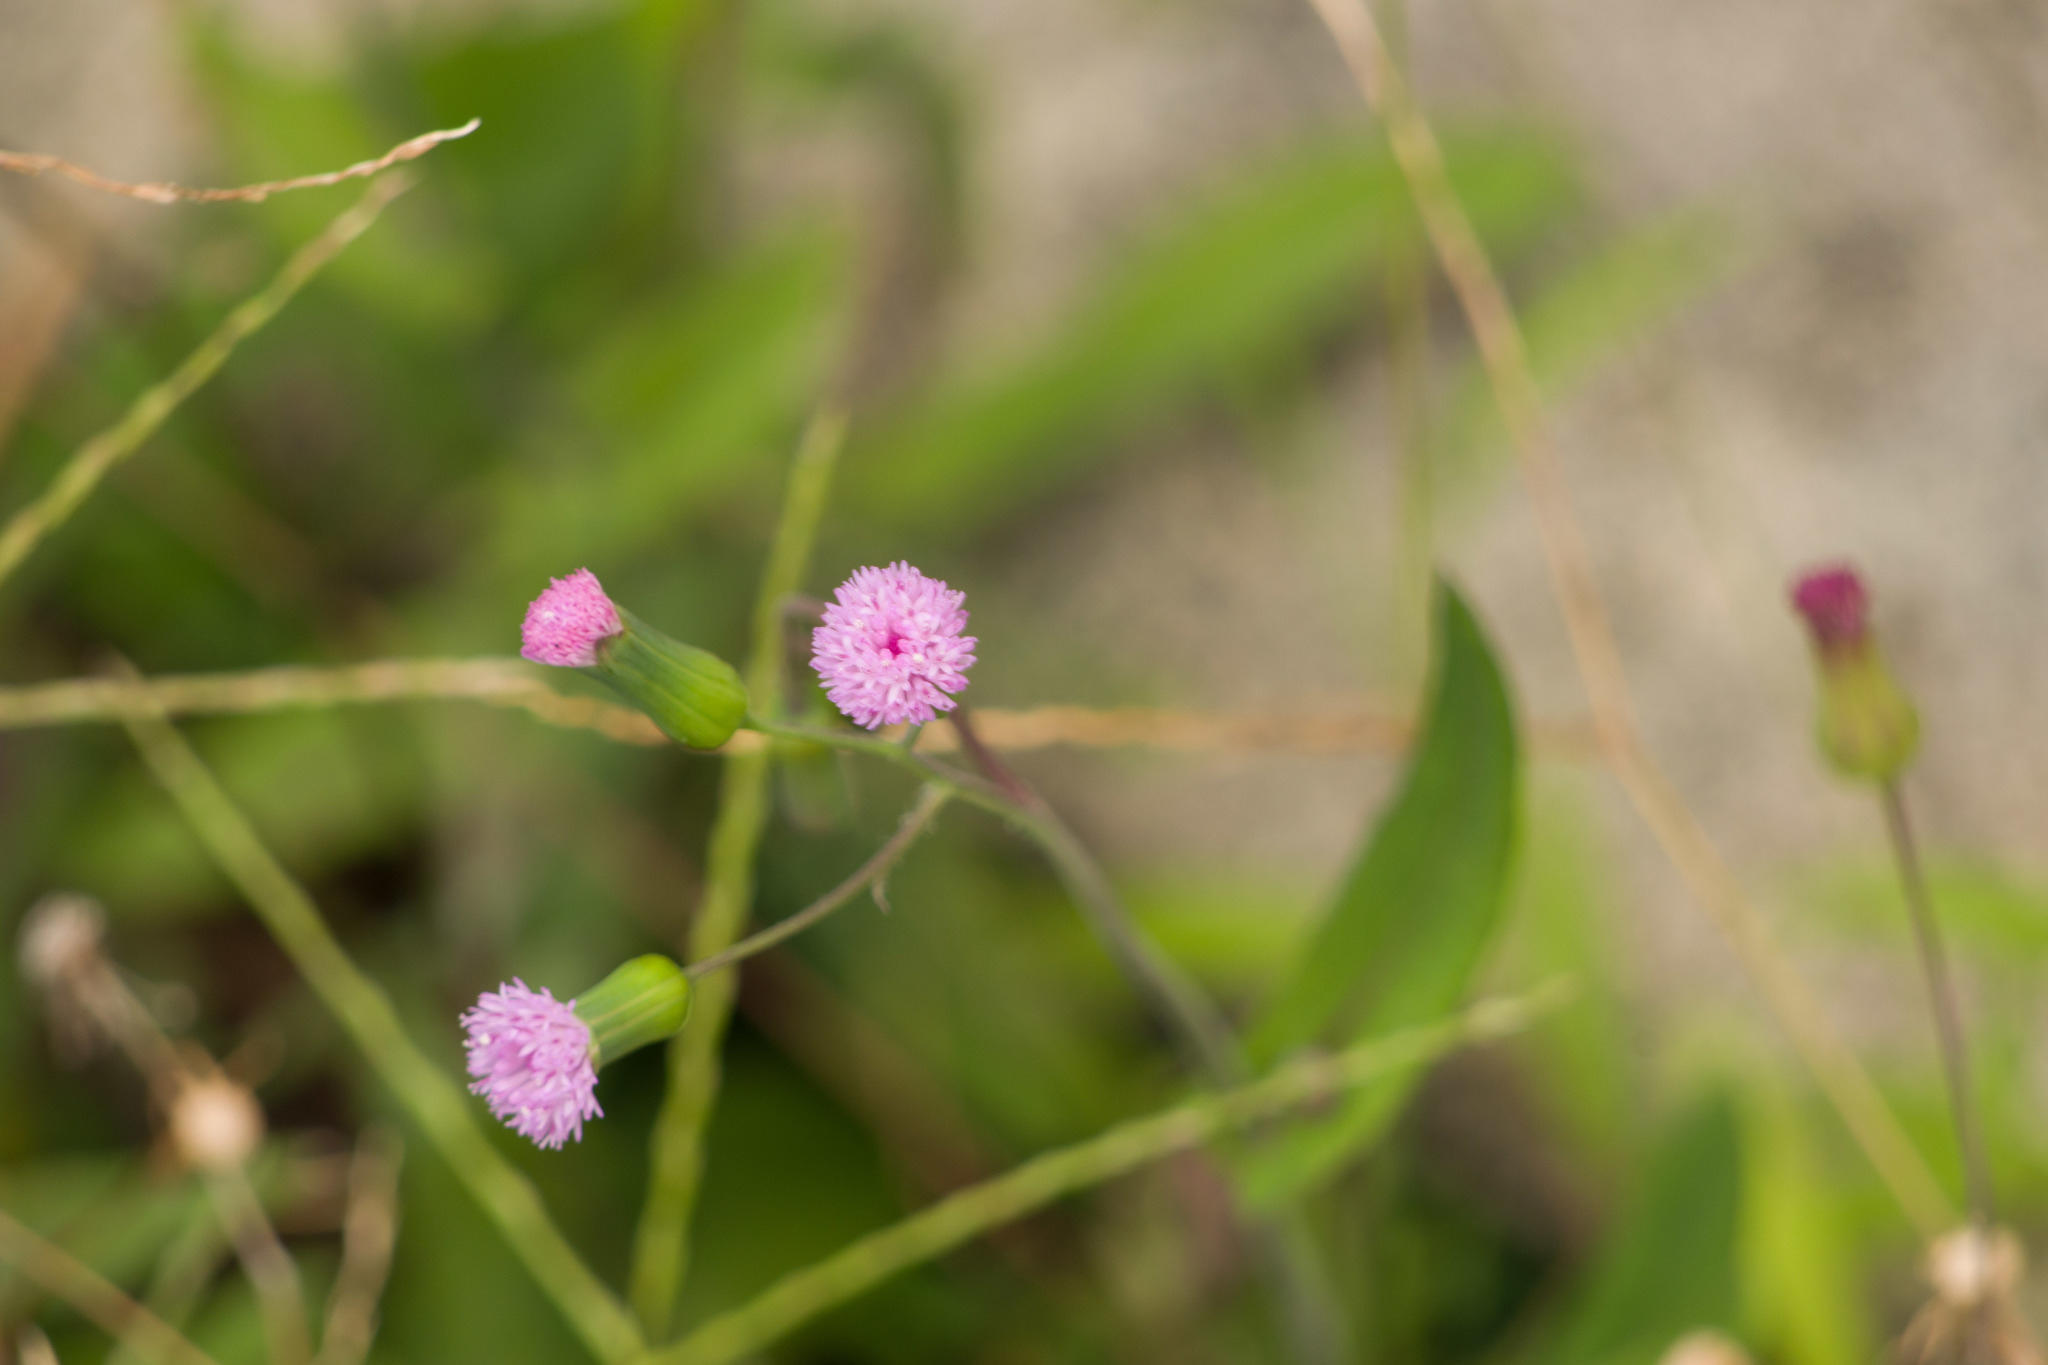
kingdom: Plantae
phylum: Tracheophyta
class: Magnoliopsida
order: Asterales
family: Asteraceae
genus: Emilia
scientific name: Emilia sonchifolia
